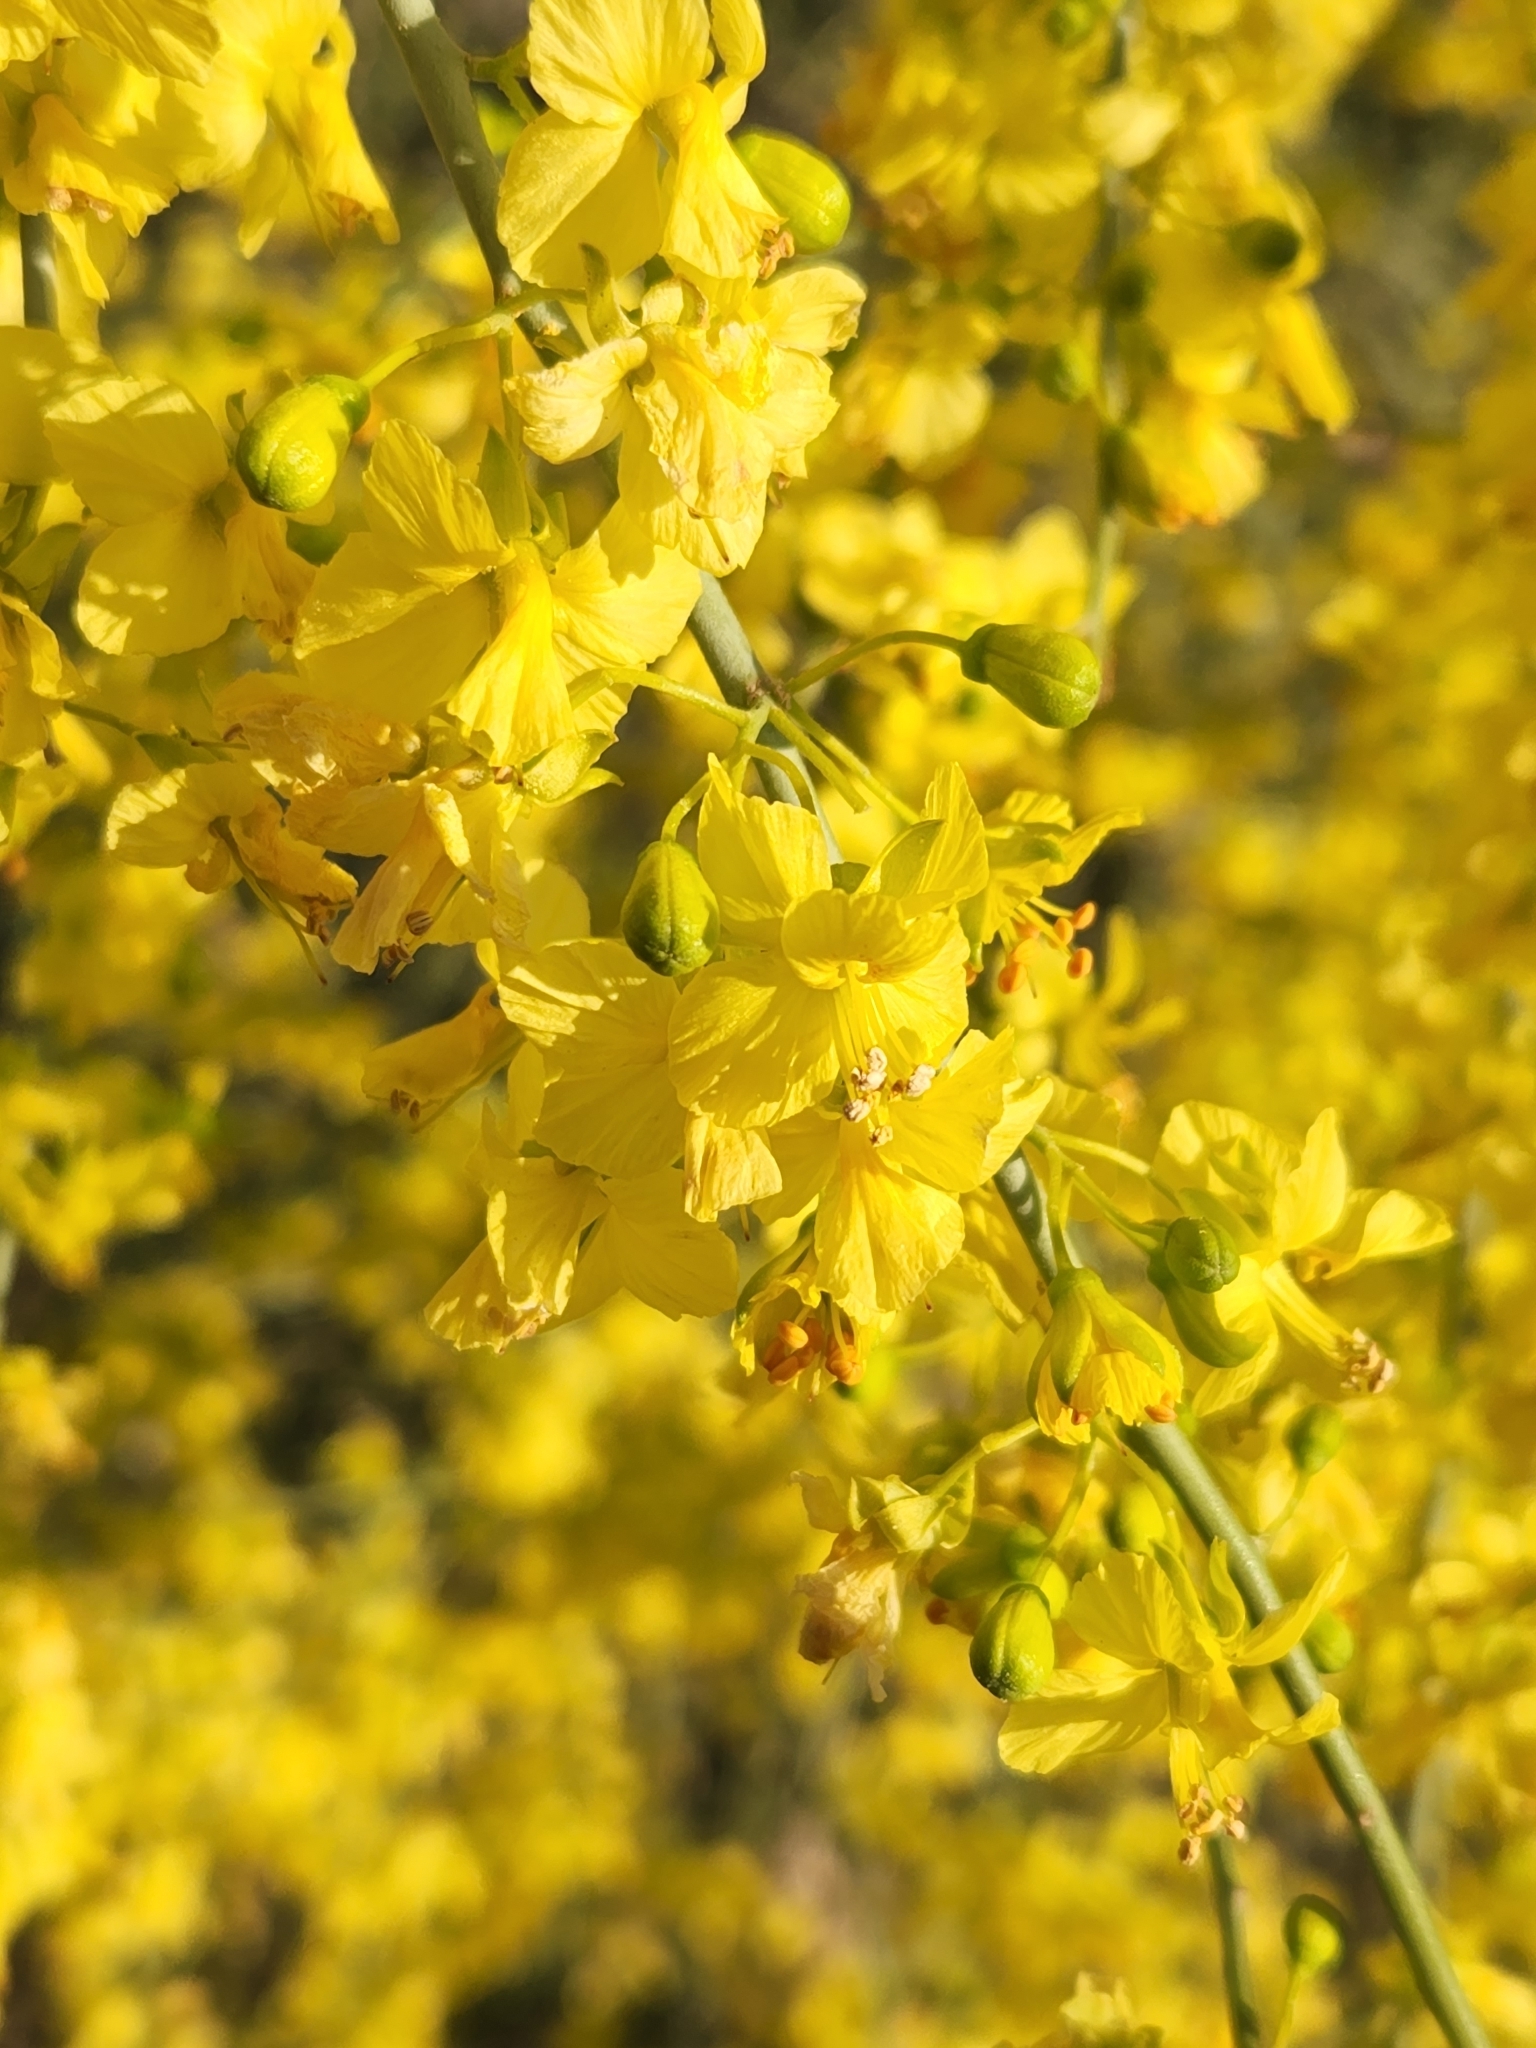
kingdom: Plantae
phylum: Tracheophyta
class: Magnoliopsida
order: Fabales
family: Fabaceae
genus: Parkinsonia
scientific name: Parkinsonia florida
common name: Blue paloverde
